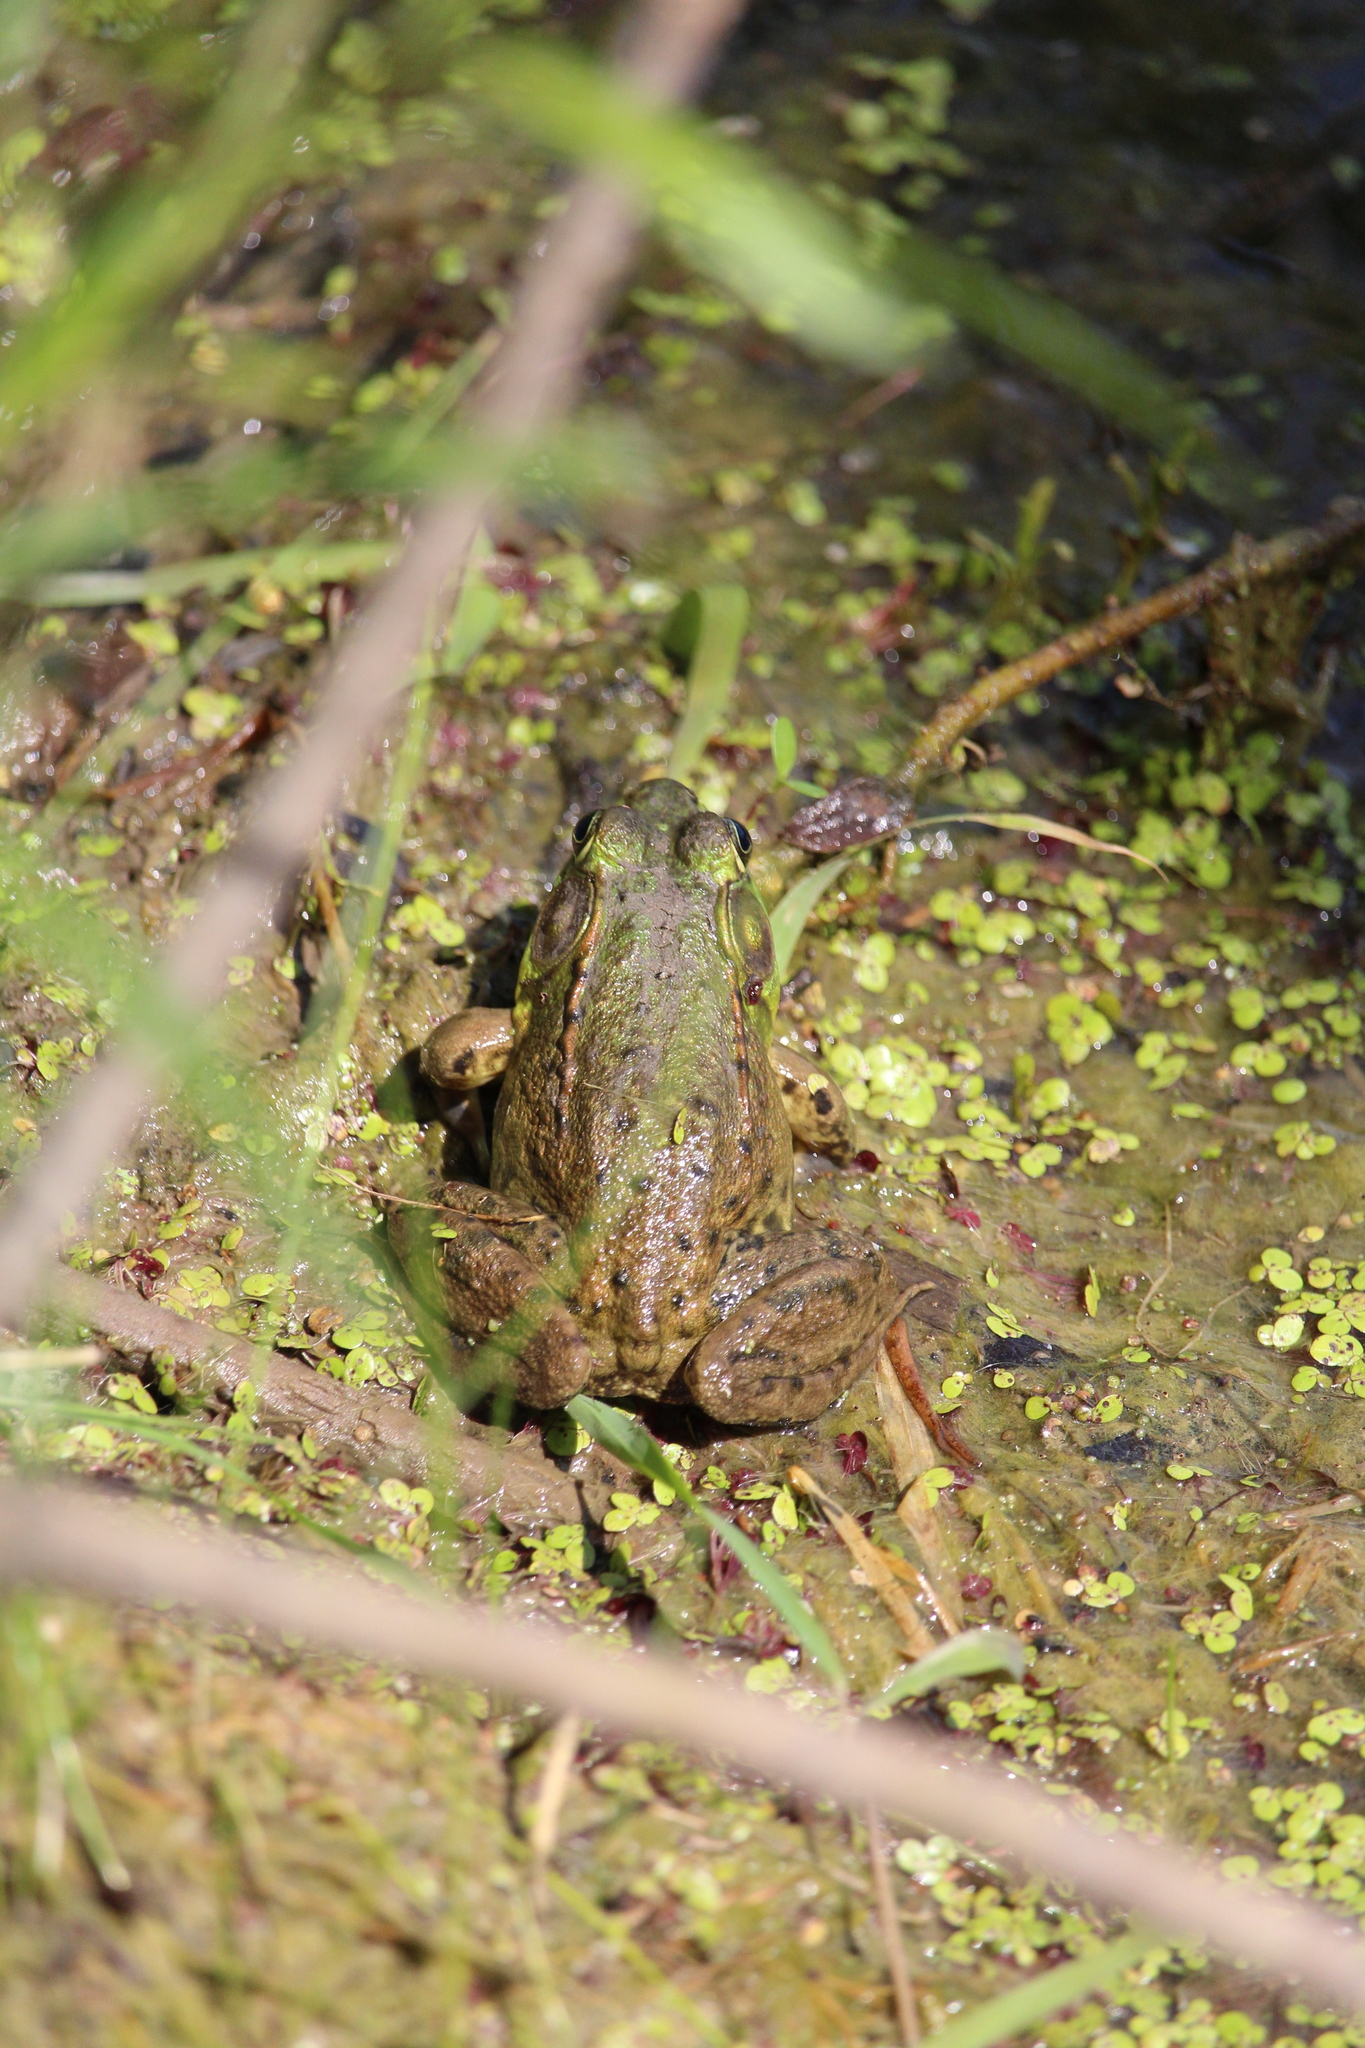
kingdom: Animalia
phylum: Chordata
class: Amphibia
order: Anura
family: Ranidae
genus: Lithobates
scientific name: Lithobates clamitans
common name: Green frog
